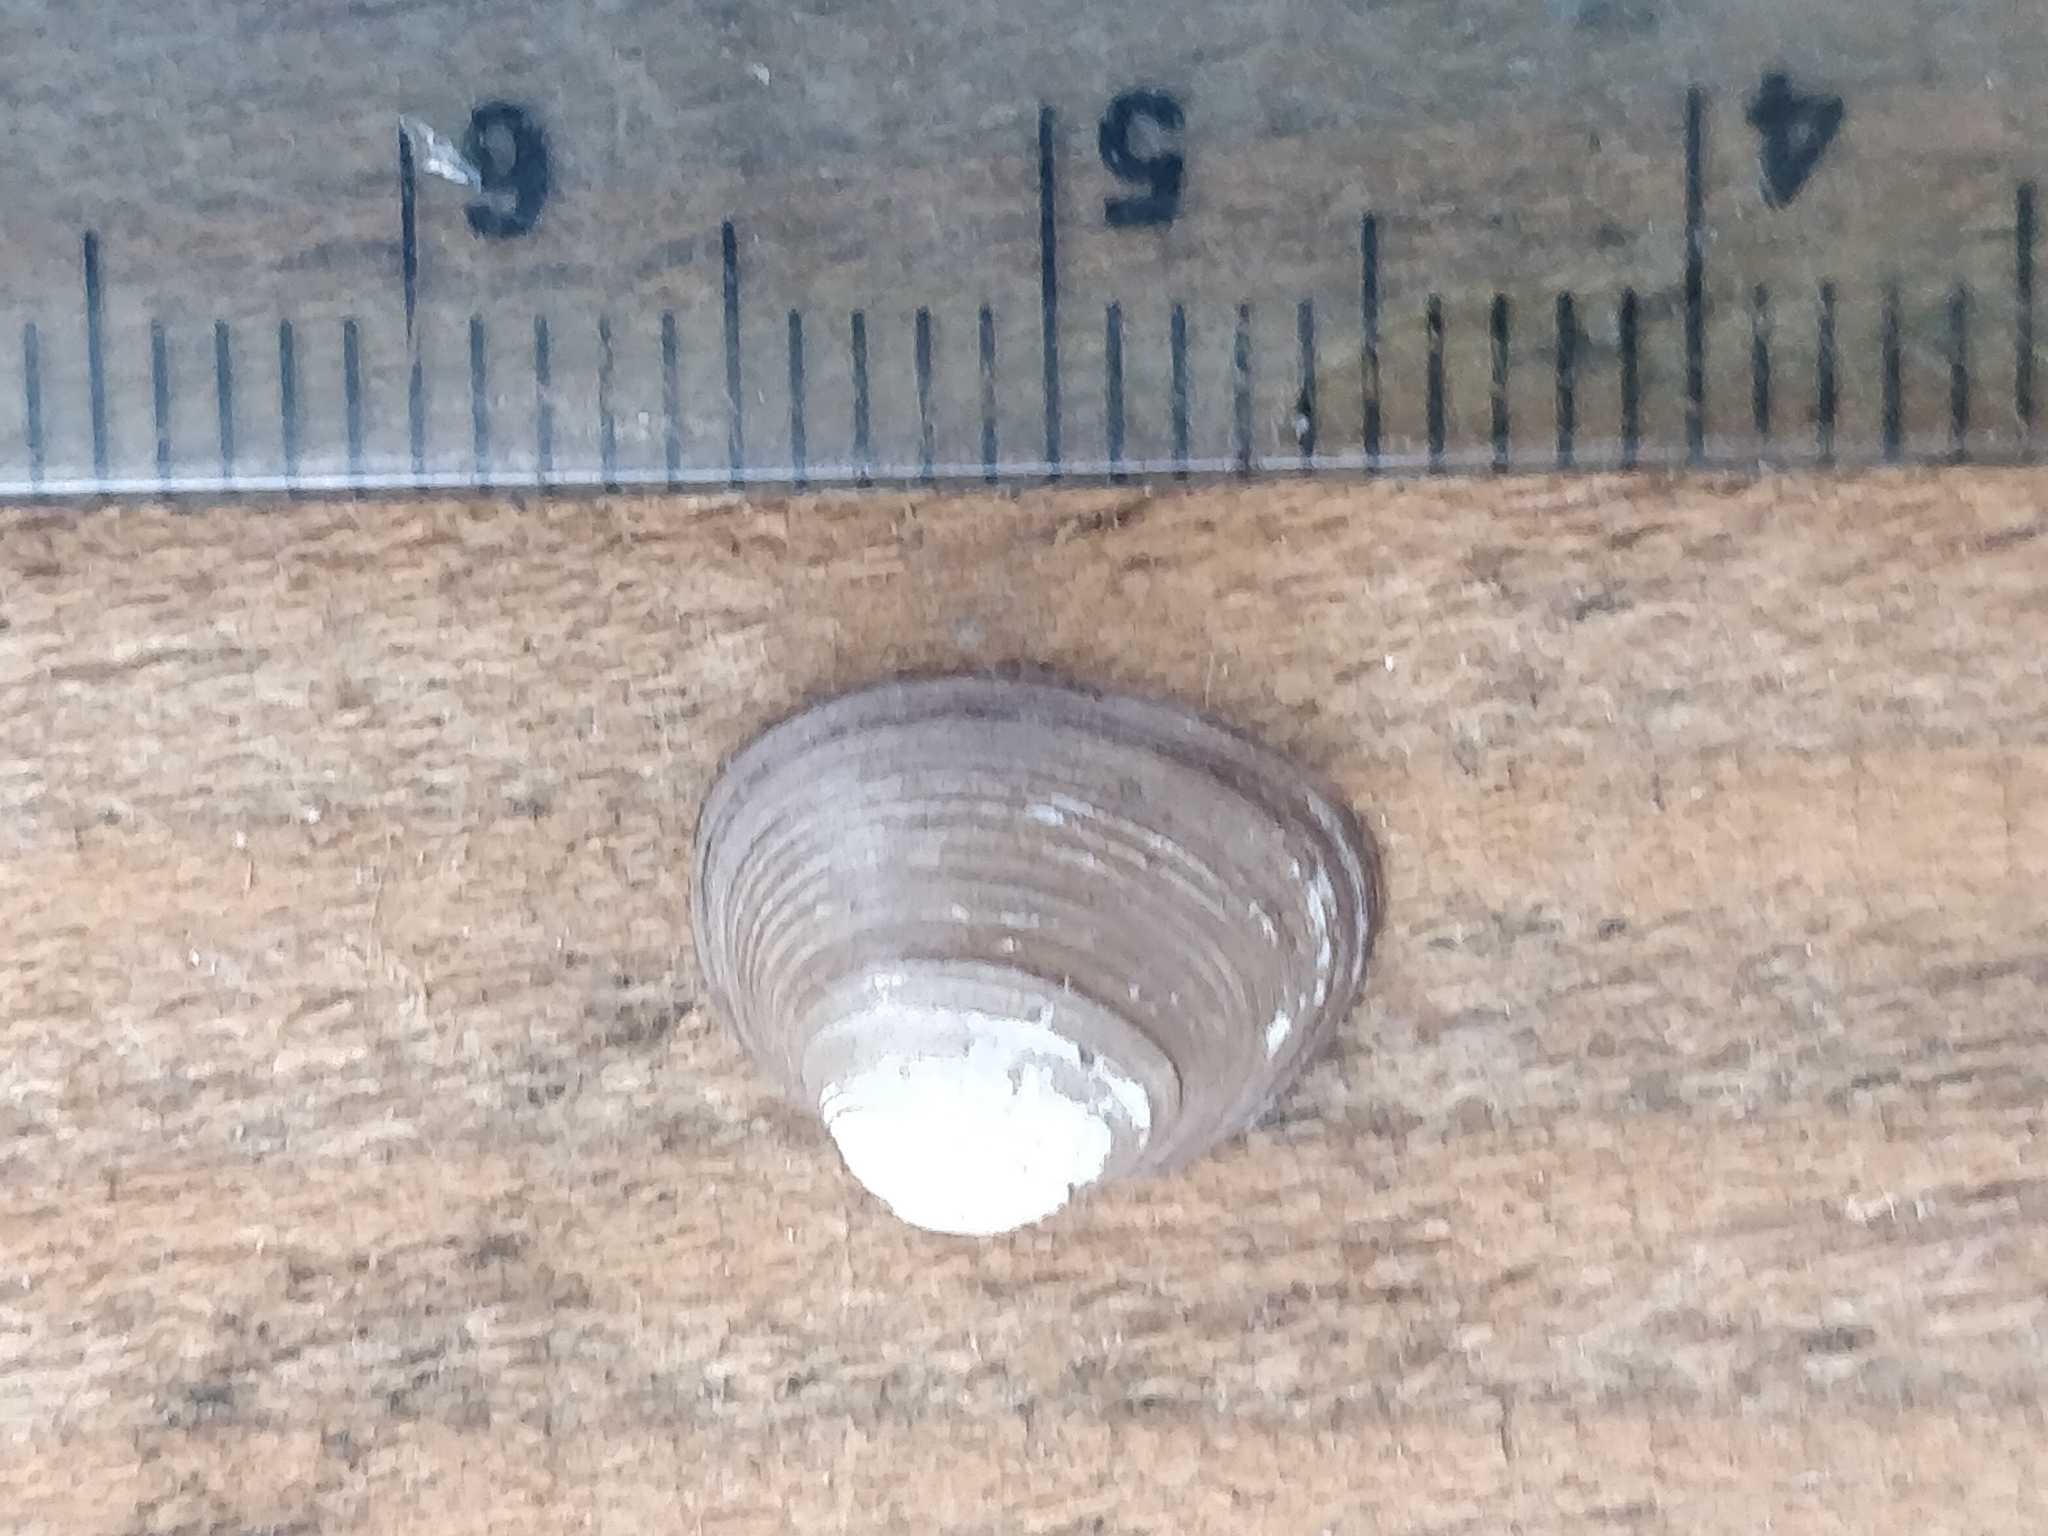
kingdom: Animalia
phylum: Mollusca
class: Bivalvia
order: Sphaeriida
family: Sphaeriidae
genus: Sphaerium
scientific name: Sphaerium striatinum
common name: Striated fingernailclam
